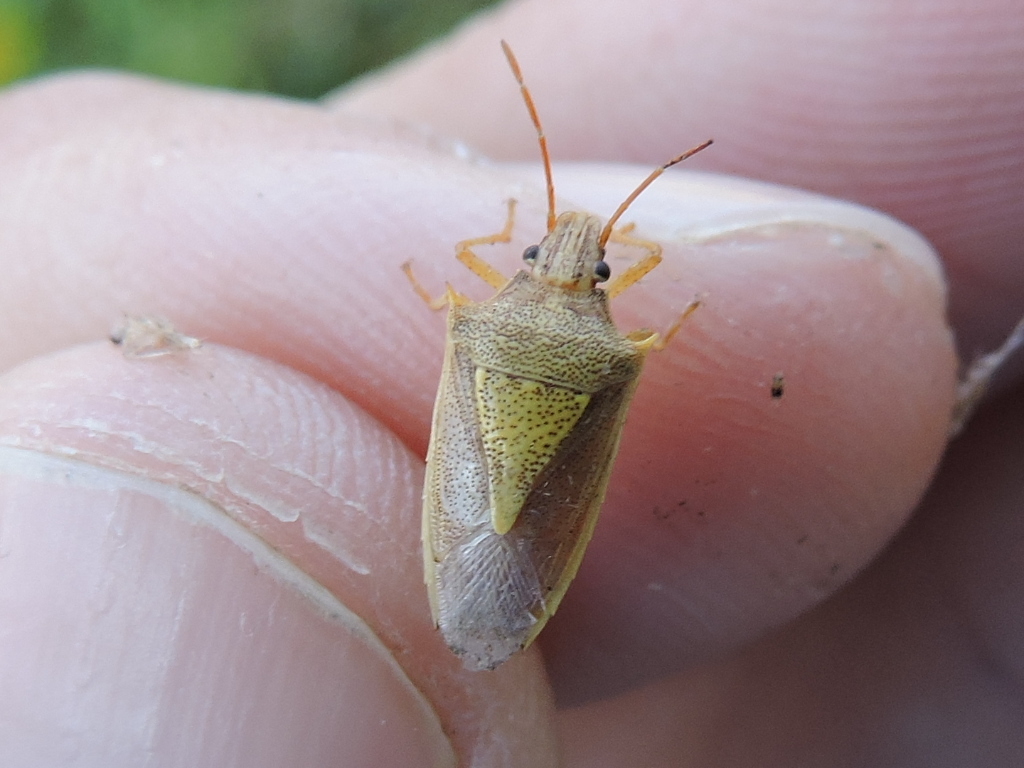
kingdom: Animalia
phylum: Arthropoda
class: Insecta
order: Hemiptera
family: Pentatomidae
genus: Oebalus
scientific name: Oebalus pugnax
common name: Rice stink bug
